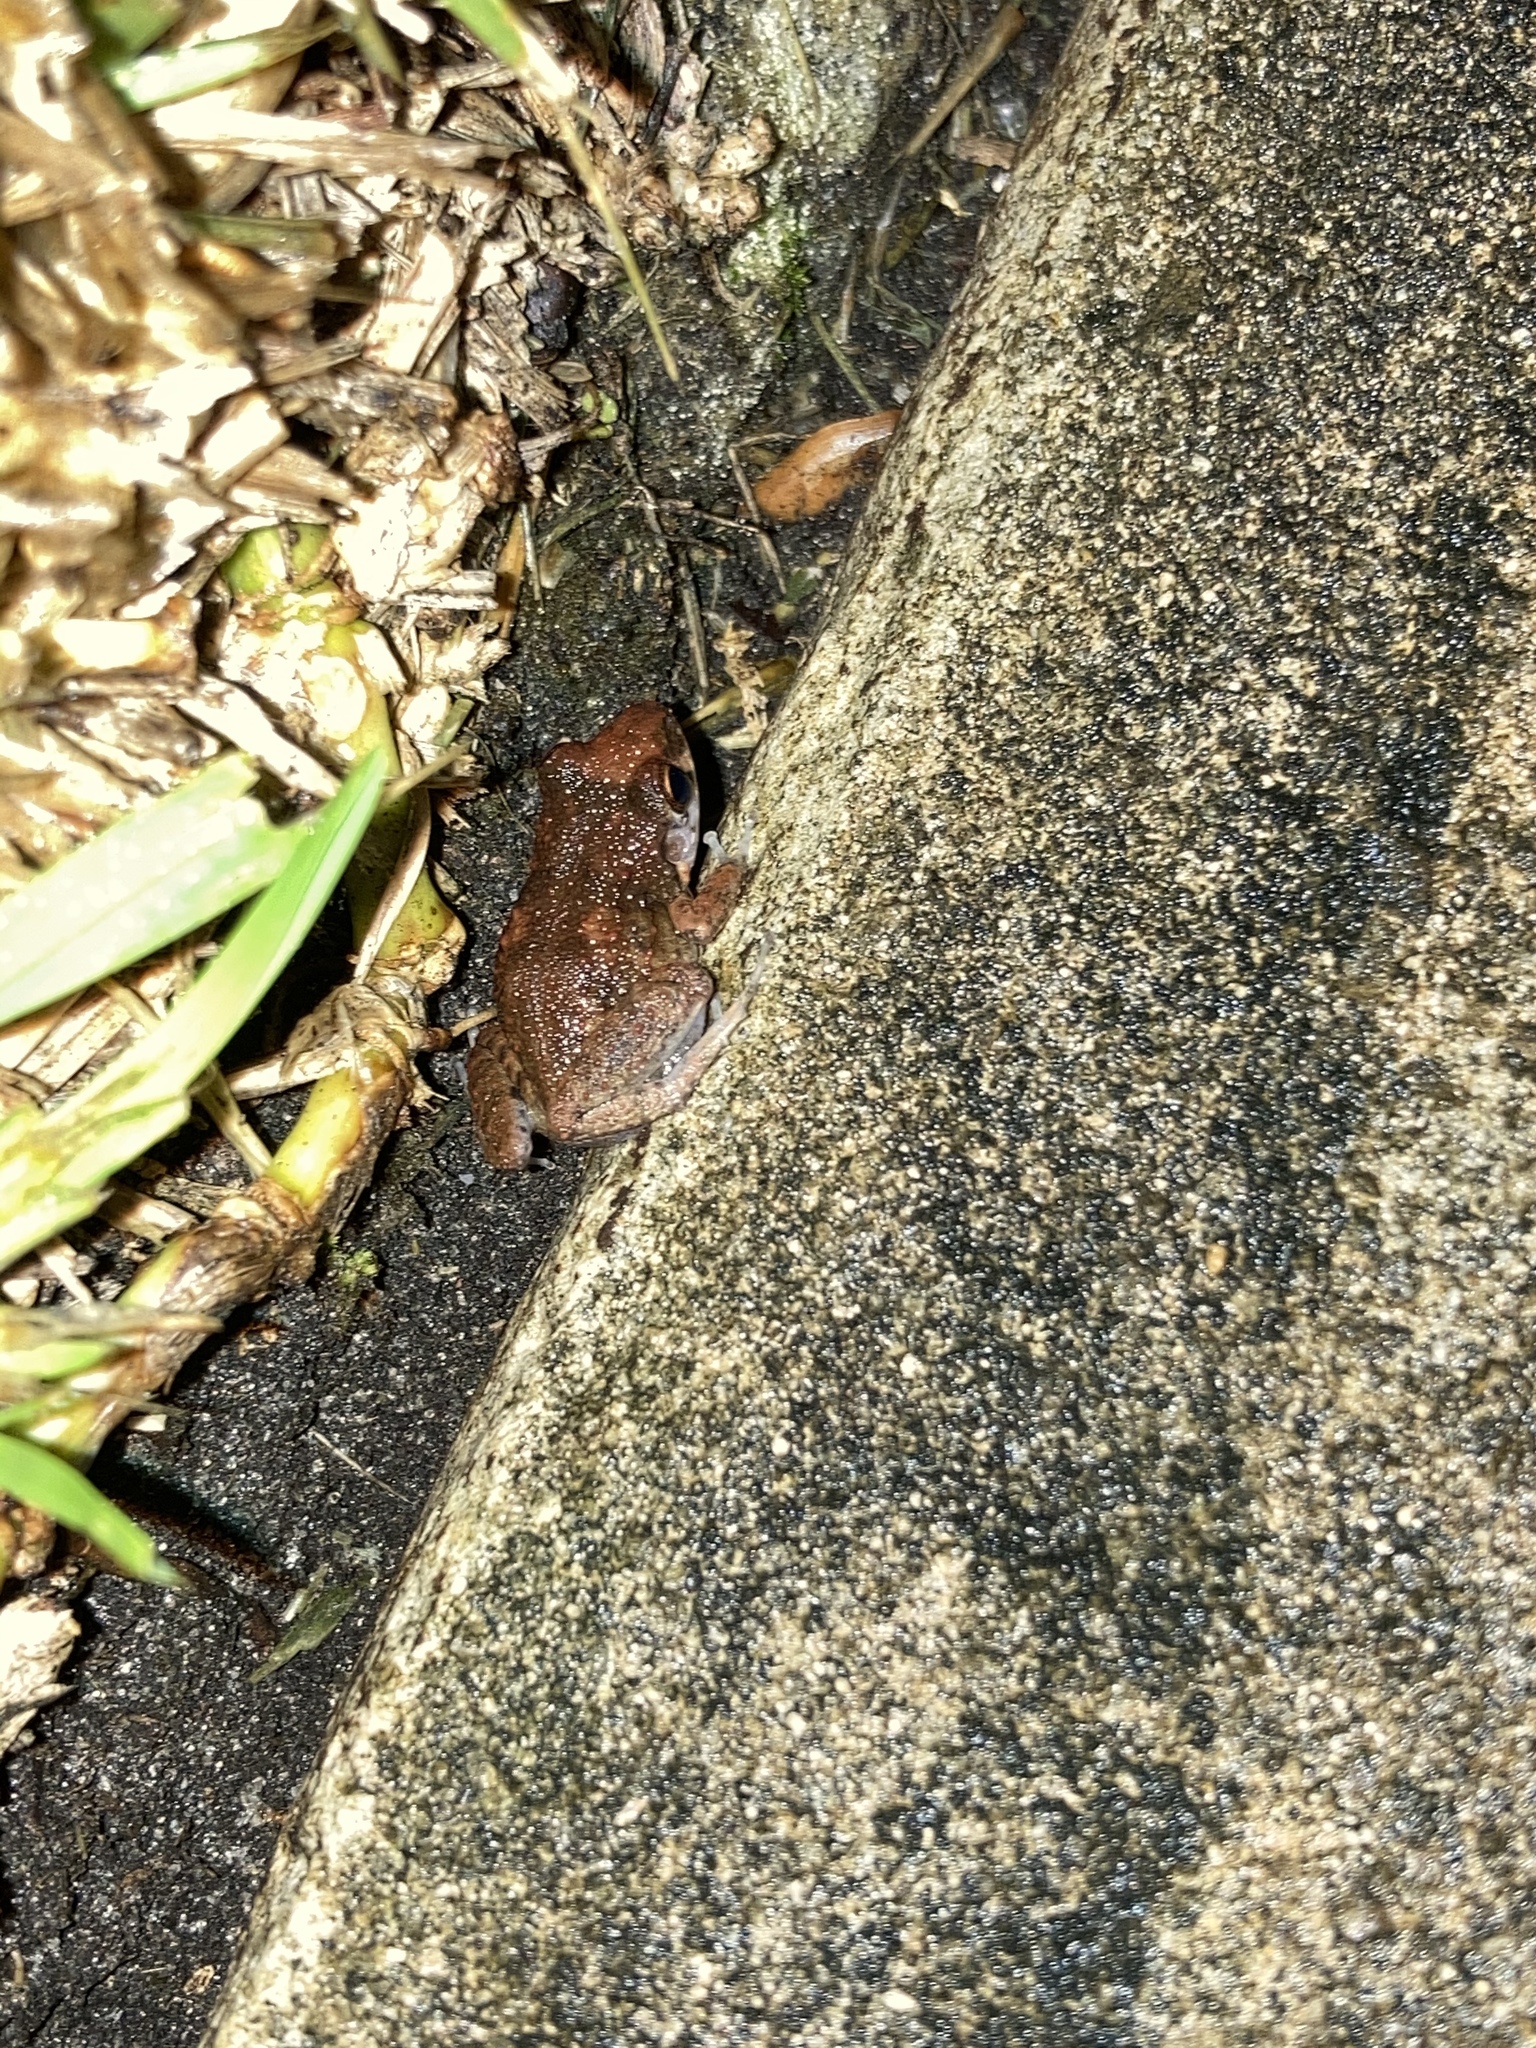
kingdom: Animalia
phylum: Chordata
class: Amphibia
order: Anura
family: Eleutherodactylidae
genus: Eleutherodactylus
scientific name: Eleutherodactylus planirostris
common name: Greenhouse frog
